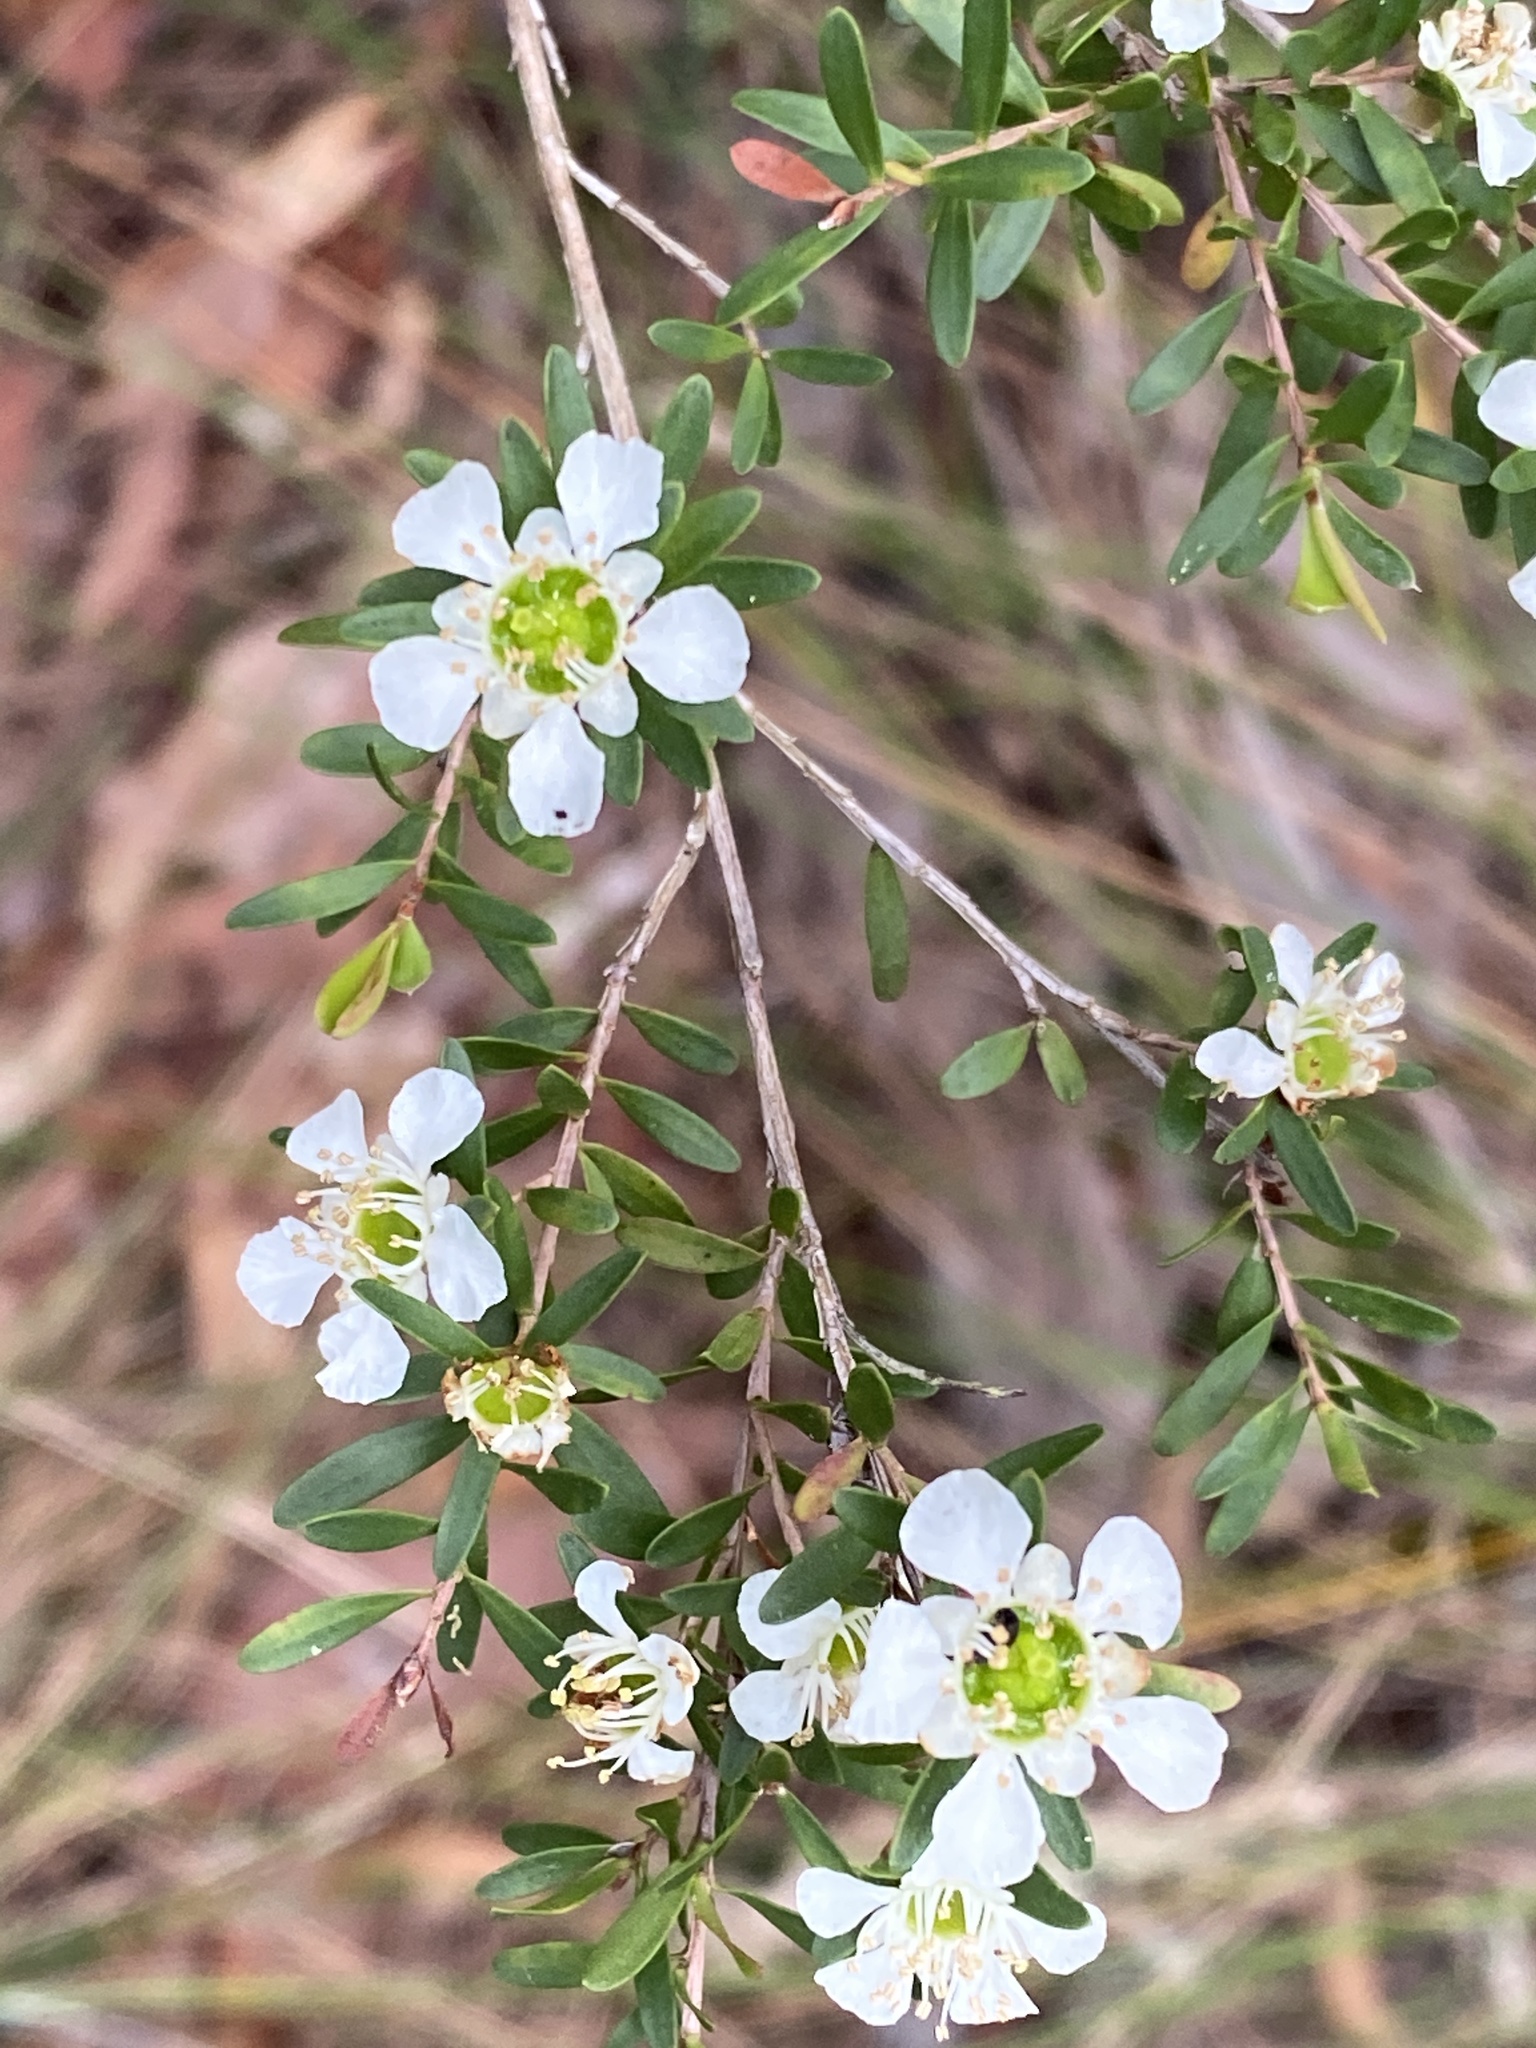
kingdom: Plantae
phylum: Tracheophyta
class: Magnoliopsida
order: Myrtales
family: Myrtaceae
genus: Leptospermum
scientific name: Leptospermum polygalifolium
